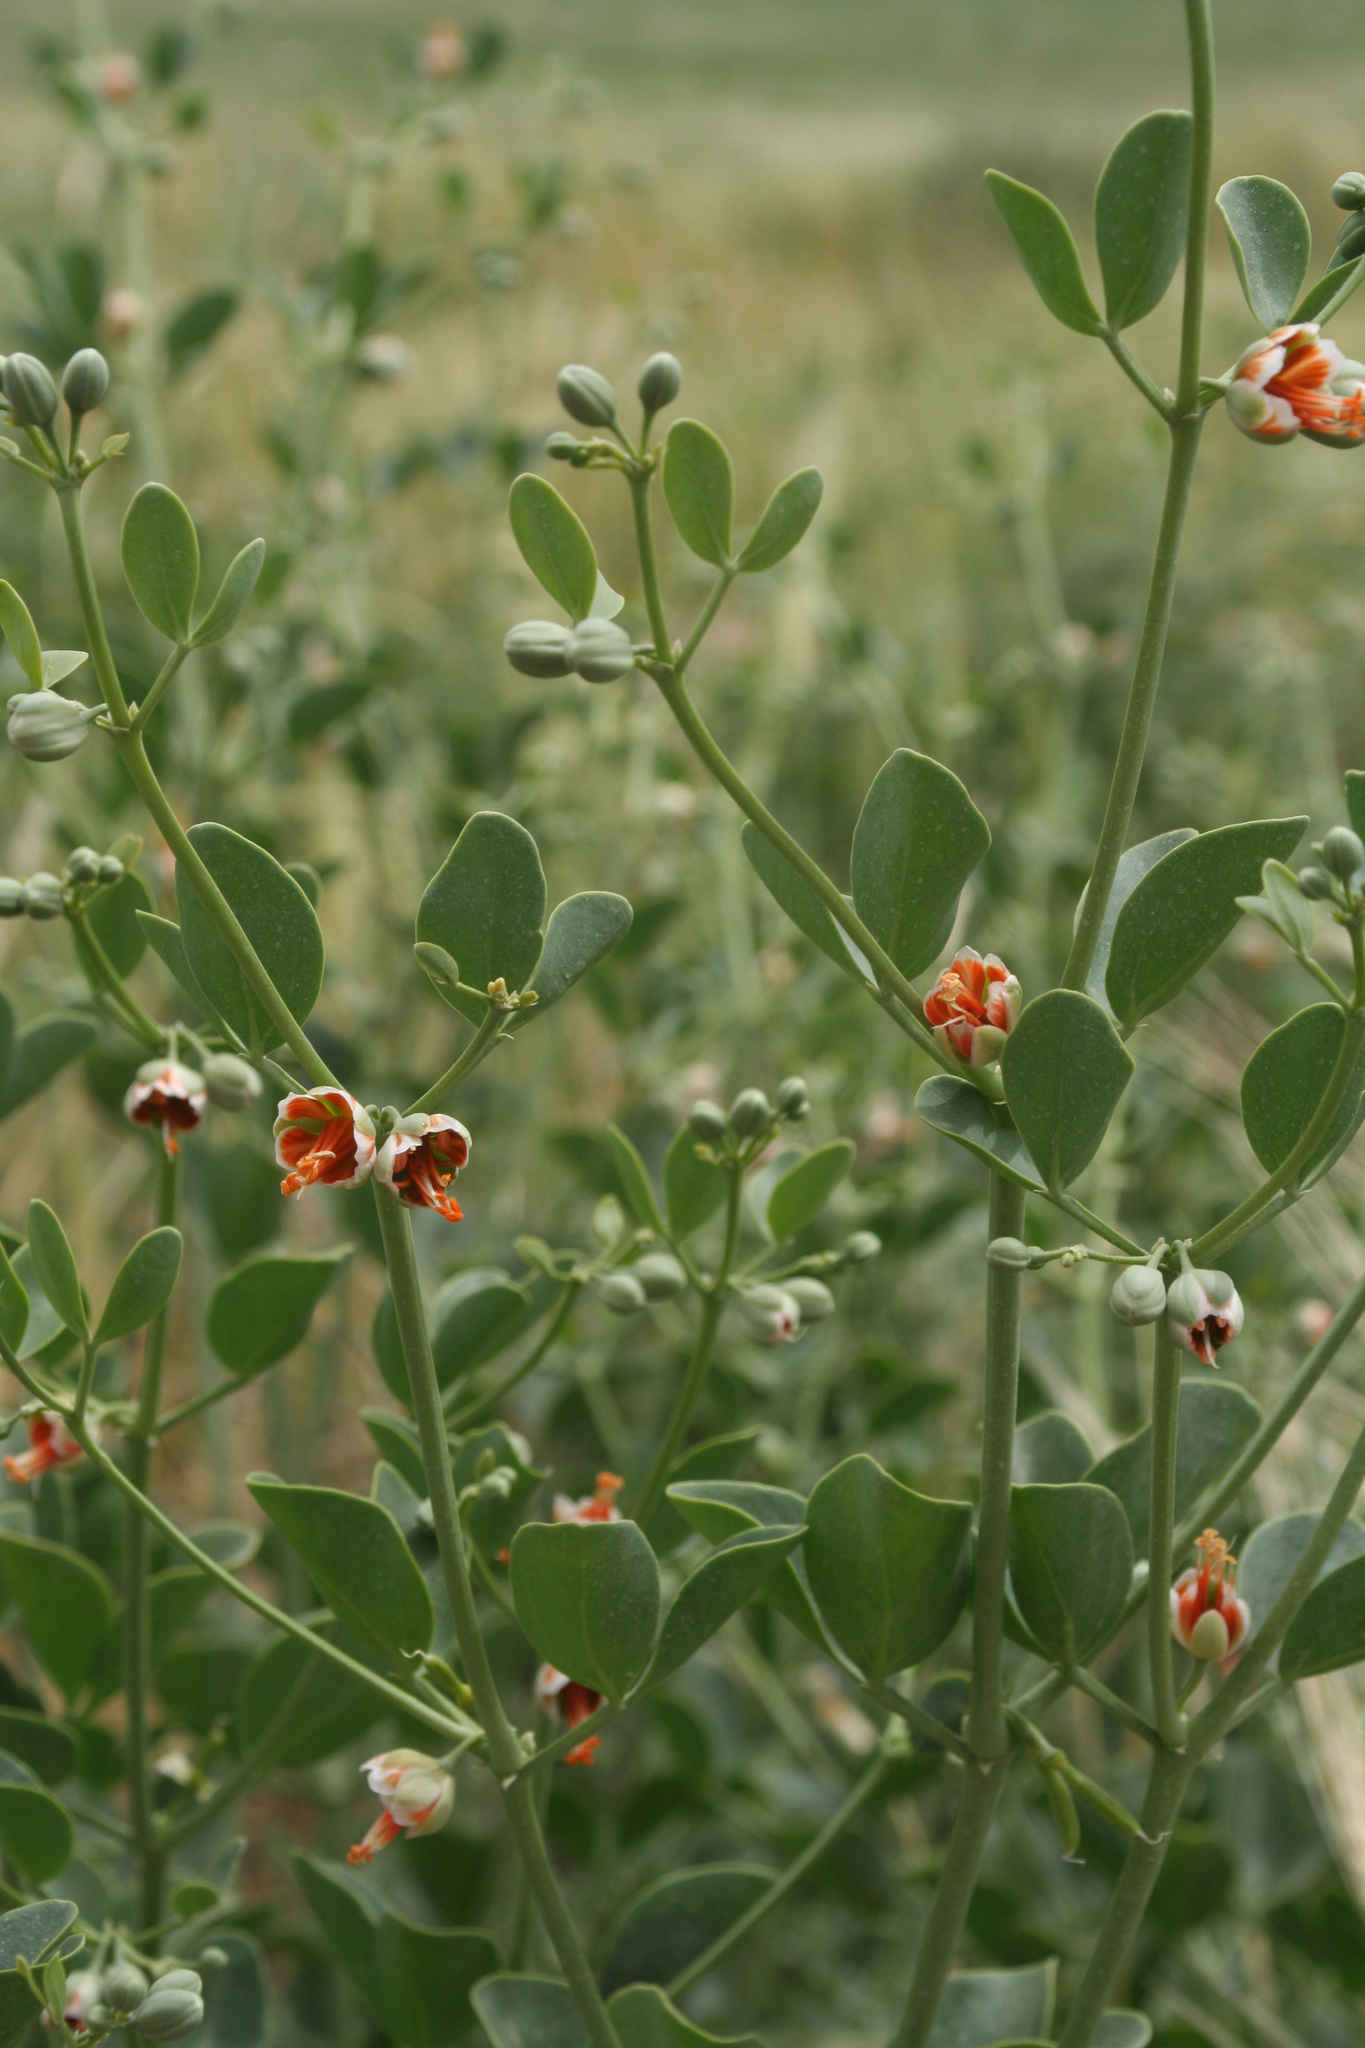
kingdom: Plantae
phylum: Tracheophyta
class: Magnoliopsida
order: Zygophyllales
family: Zygophyllaceae
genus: Zygophyllum
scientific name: Zygophyllum fabago
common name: Syrian beancaper
